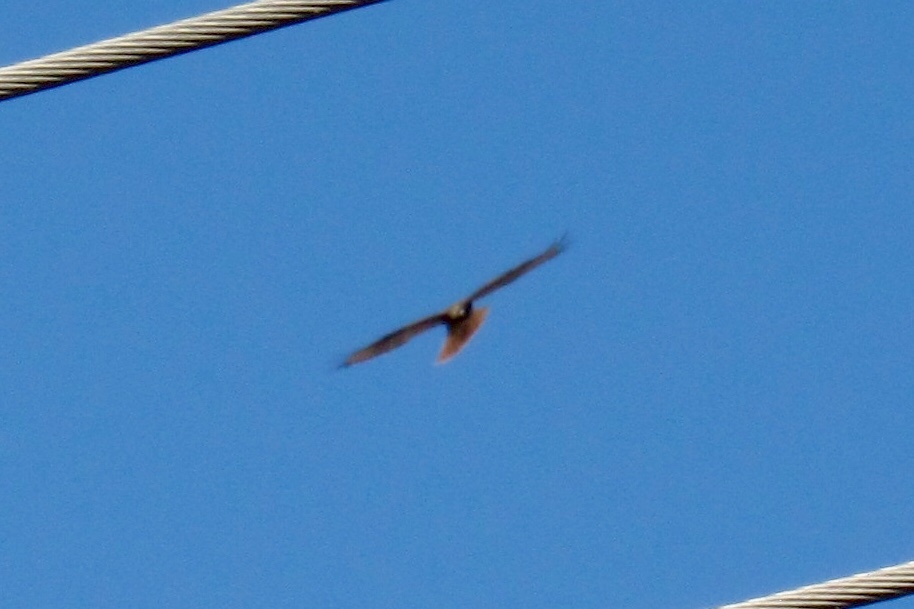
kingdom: Animalia
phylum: Chordata
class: Aves
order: Accipitriformes
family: Accipitridae
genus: Buteo
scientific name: Buteo jamaicensis
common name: Red-tailed hawk
